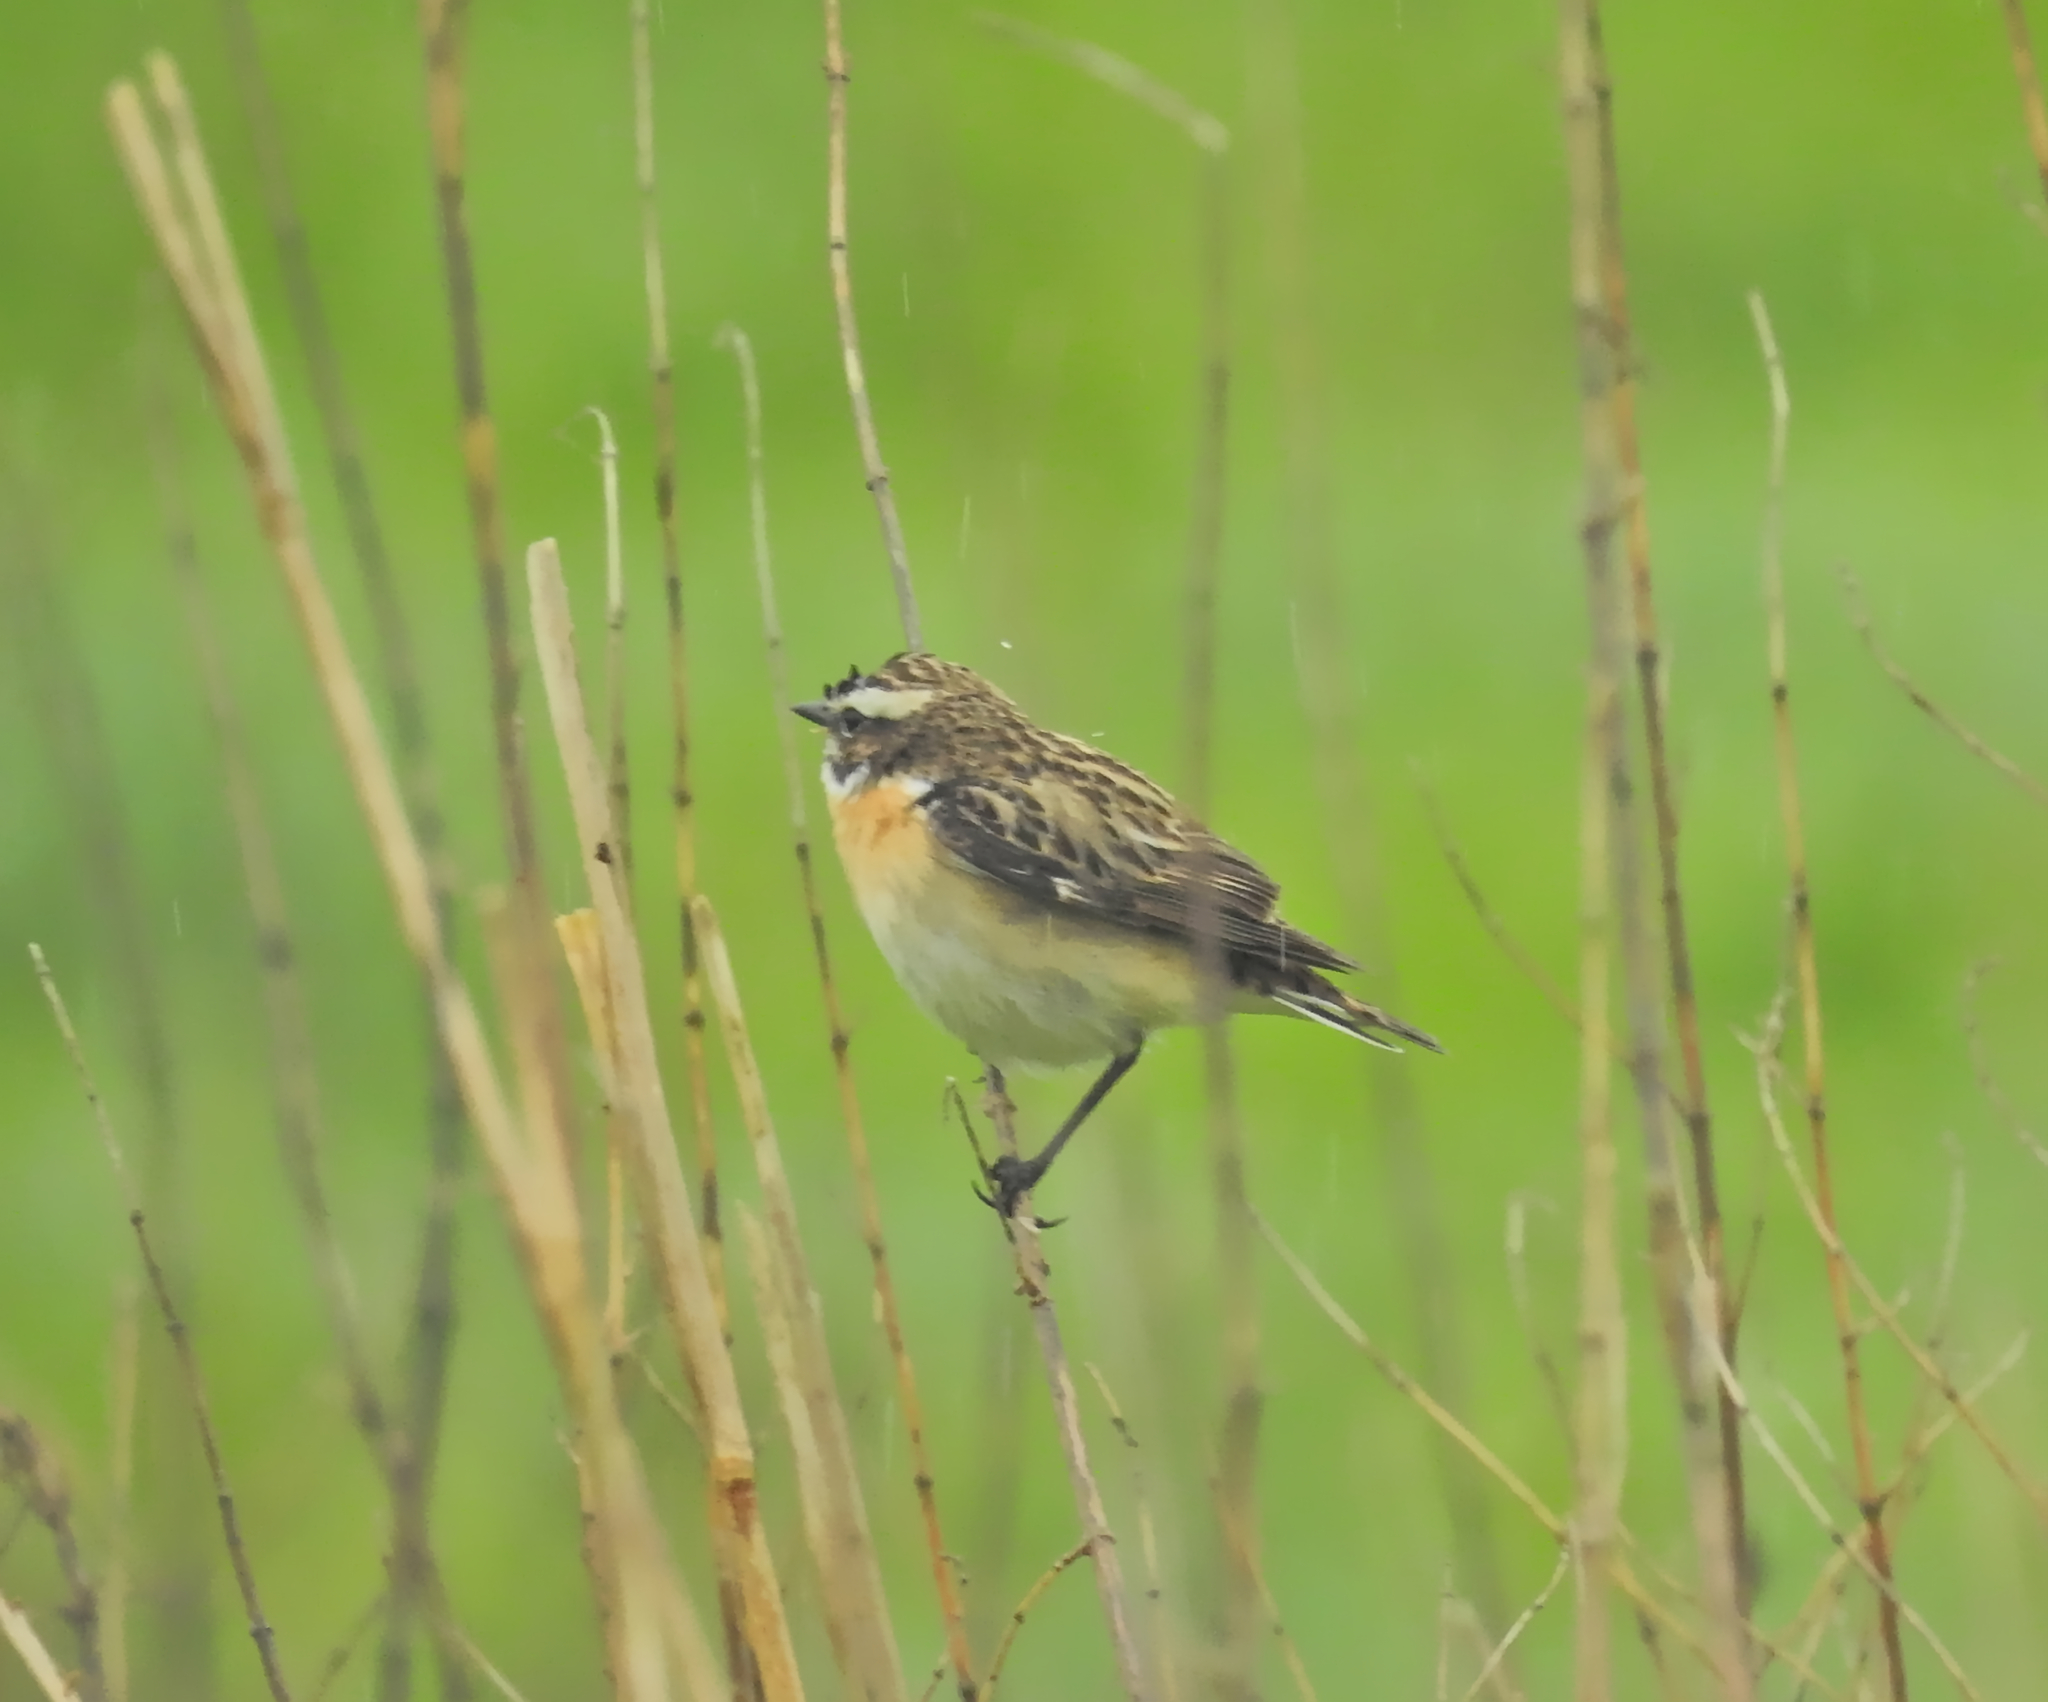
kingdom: Animalia
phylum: Chordata
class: Aves
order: Passeriformes
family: Muscicapidae
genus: Saxicola
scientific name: Saxicola rubetra
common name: Whinchat
